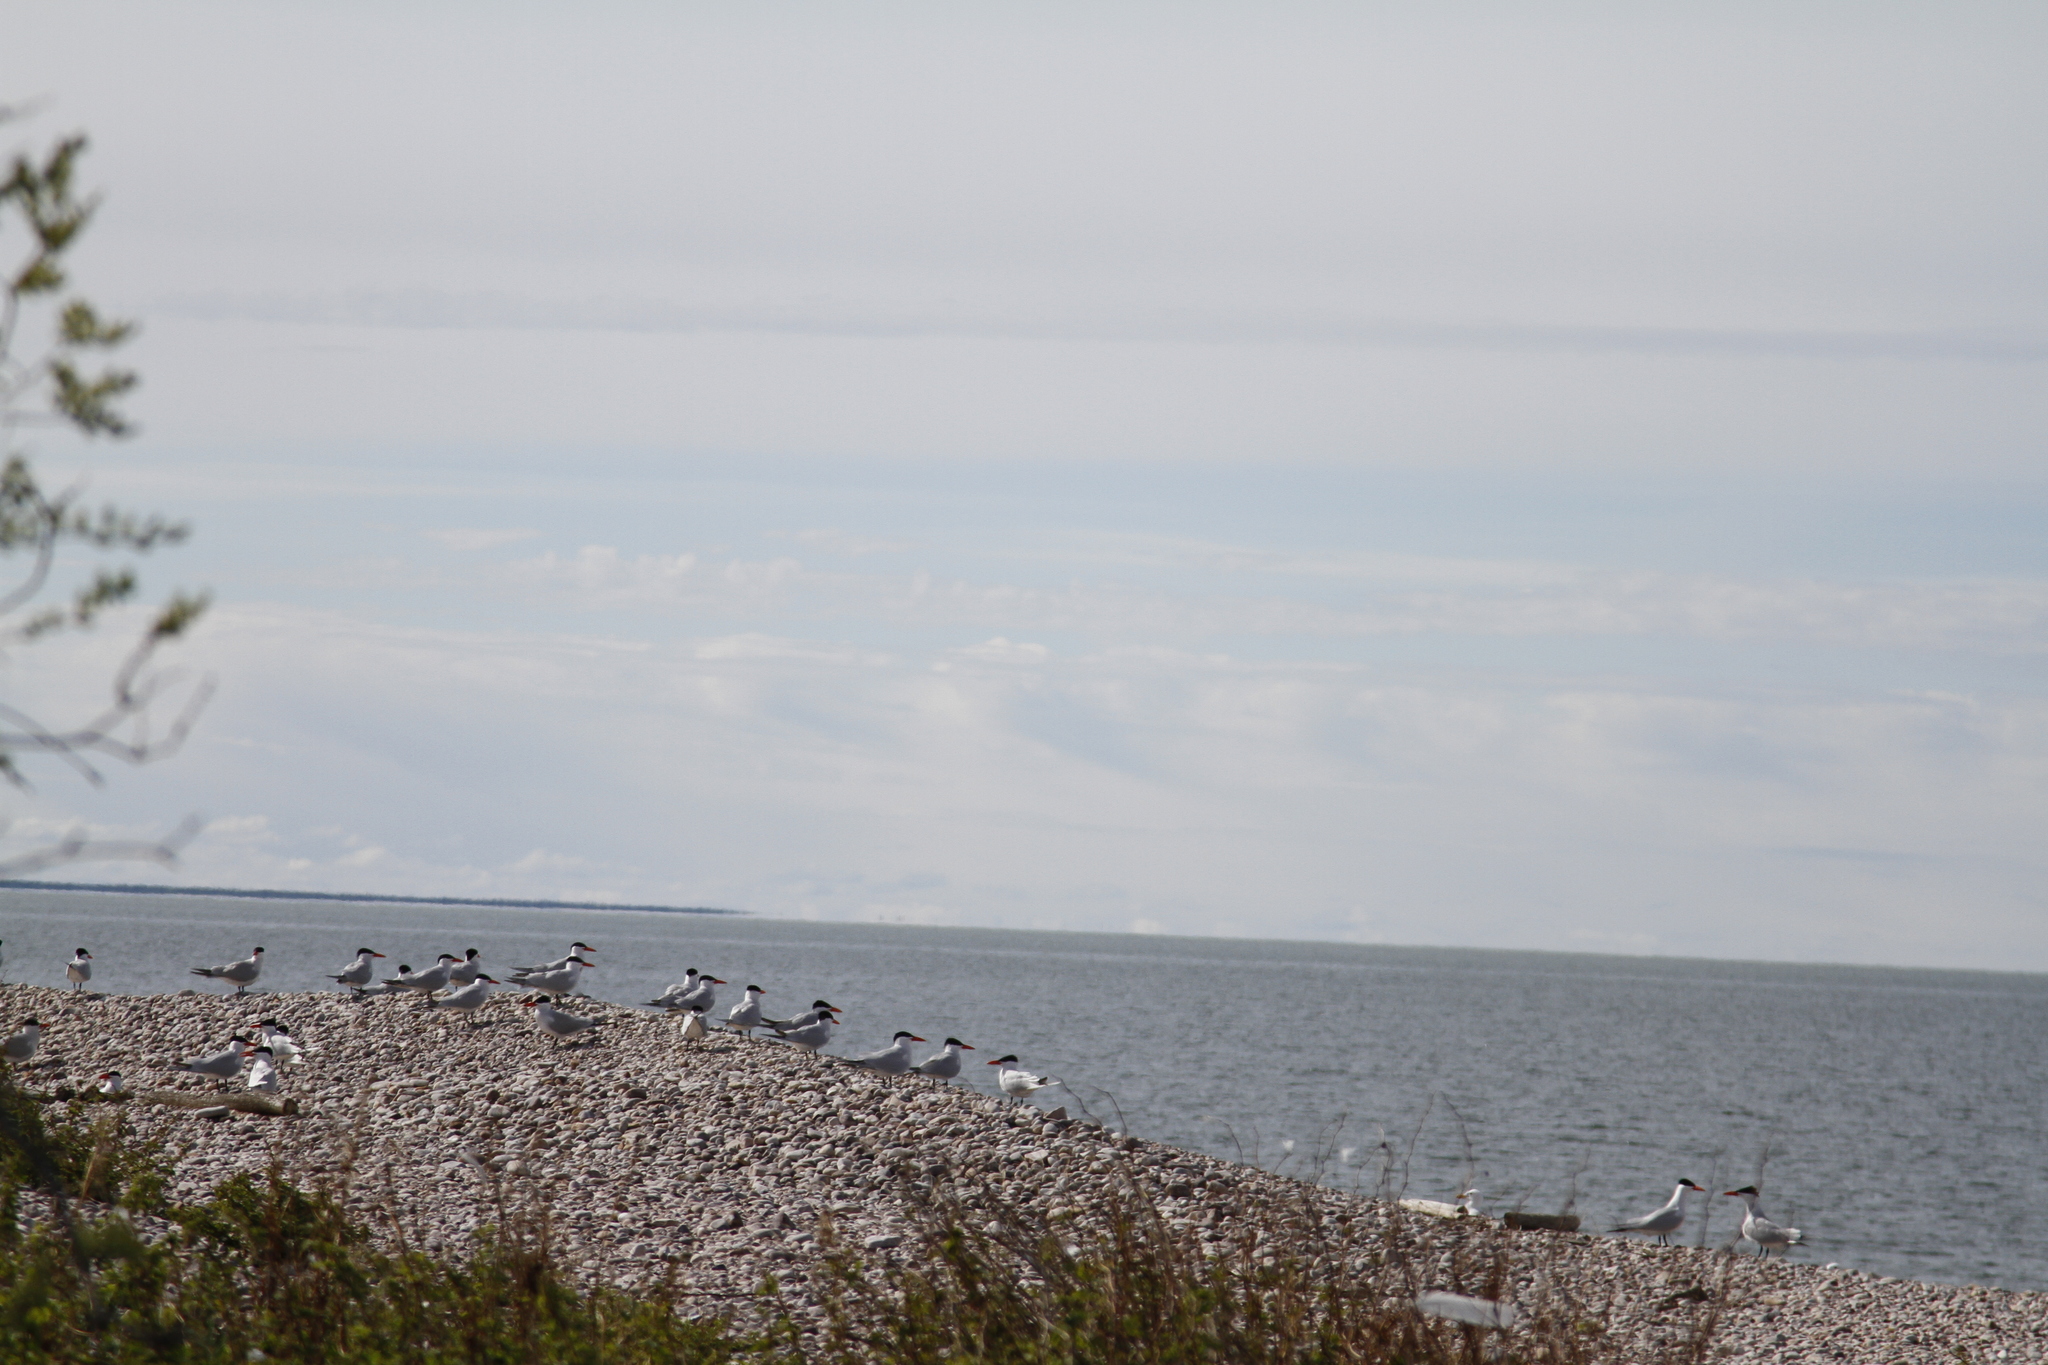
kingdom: Animalia
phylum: Chordata
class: Aves
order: Charadriiformes
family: Laridae
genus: Hydroprogne
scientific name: Hydroprogne caspia
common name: Caspian tern
